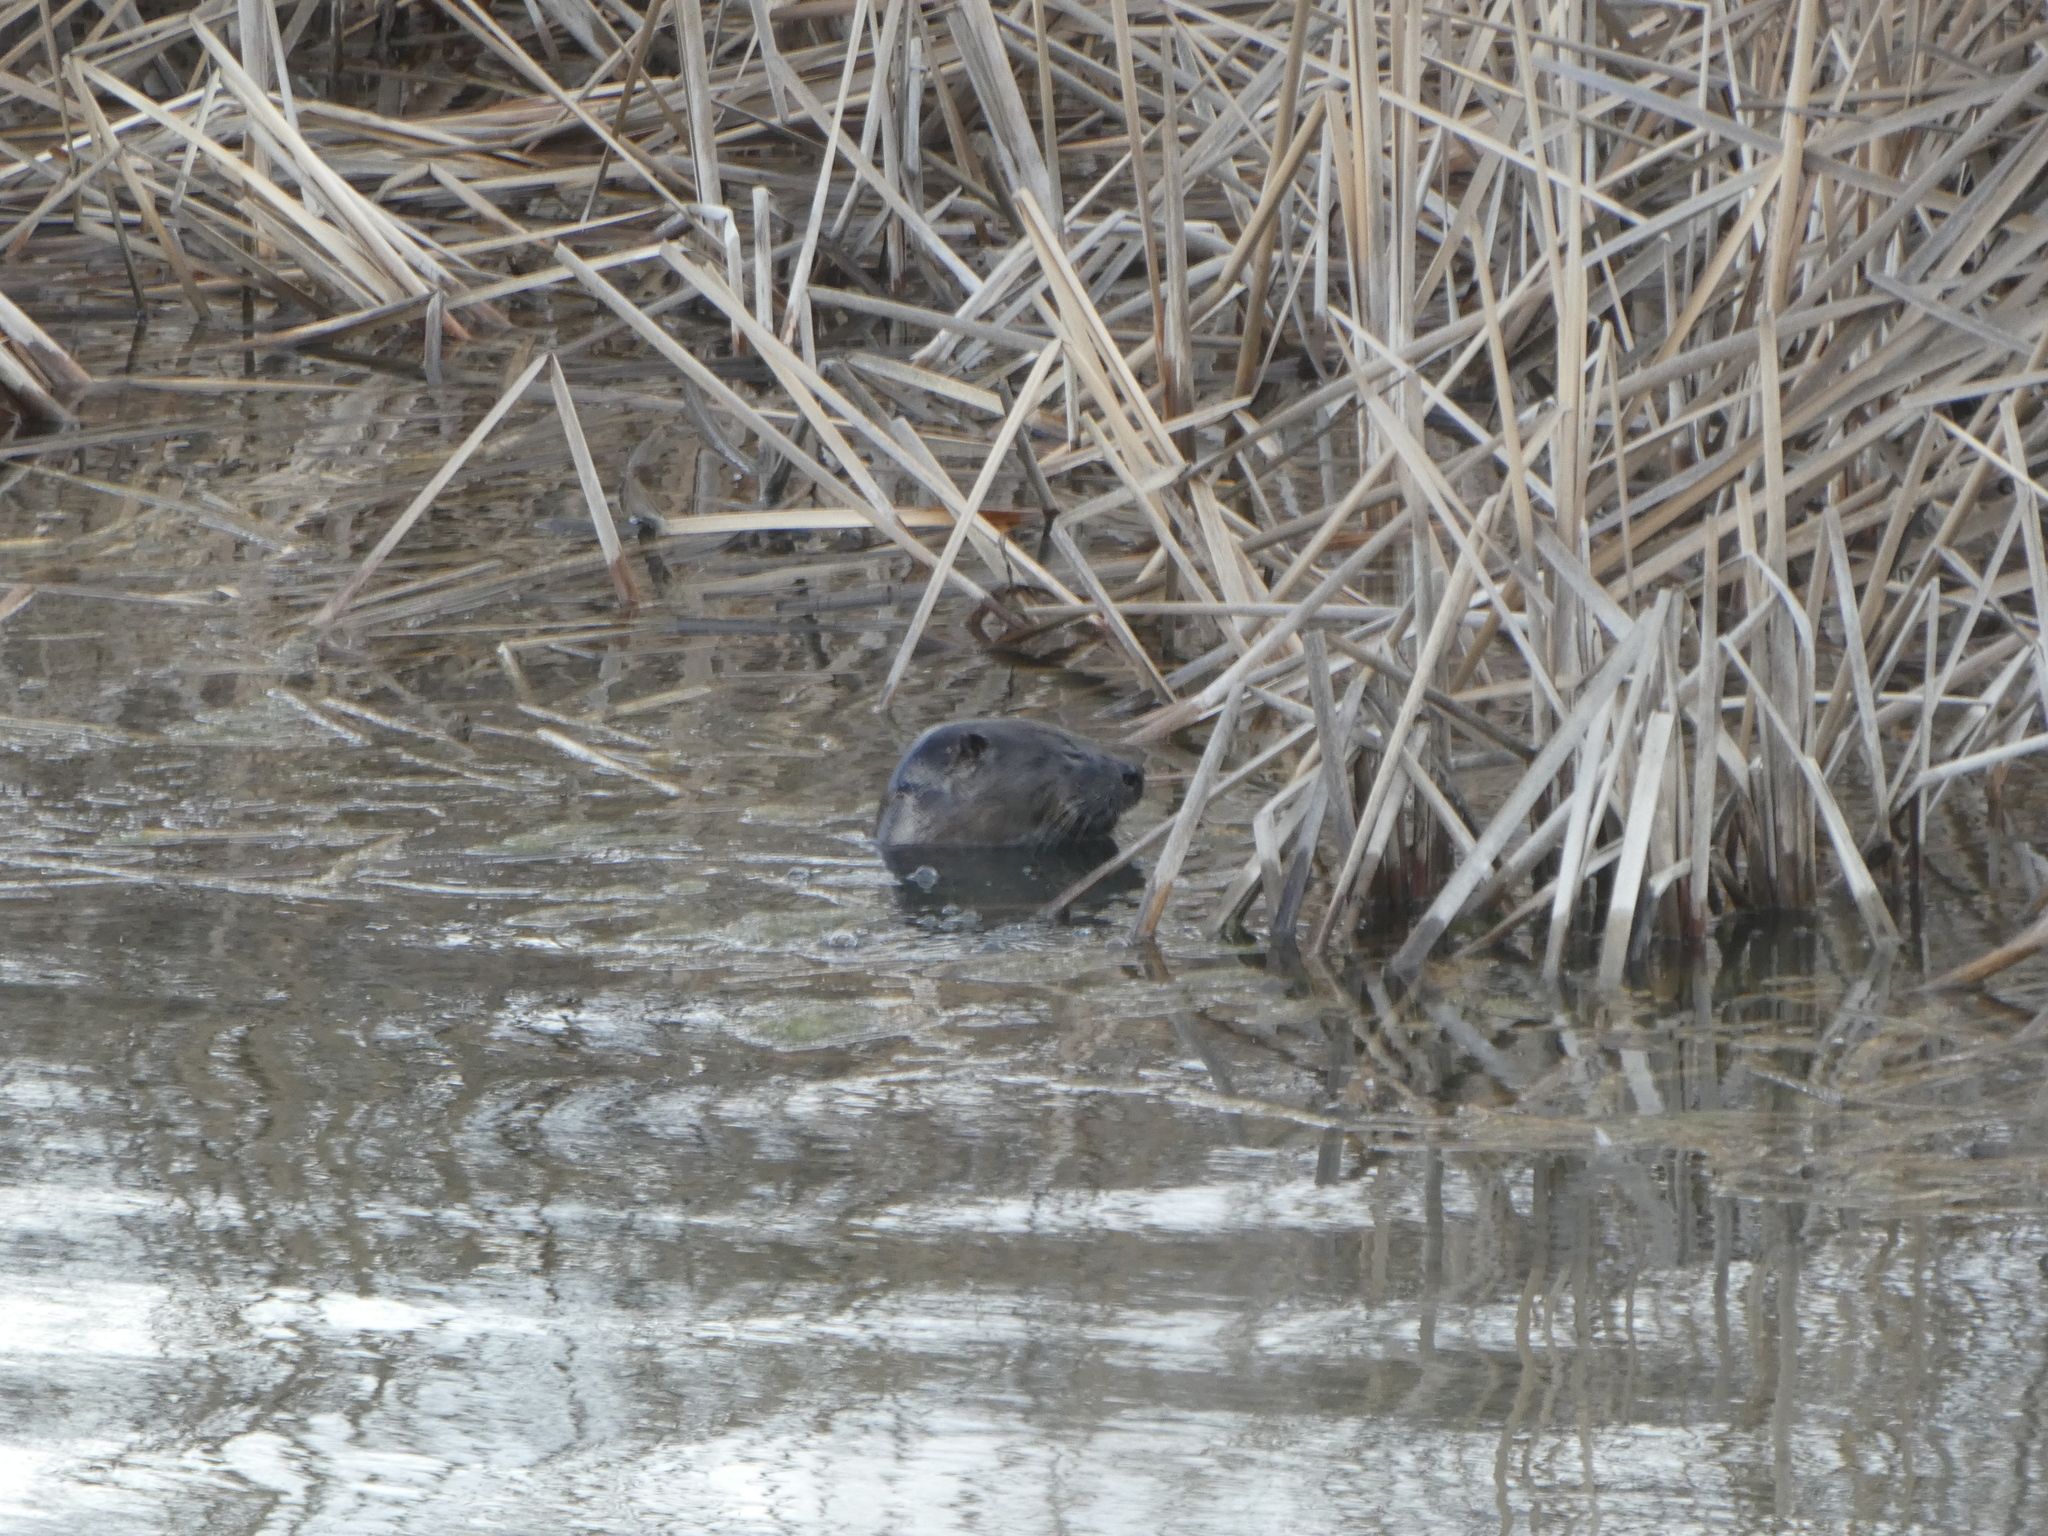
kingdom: Animalia
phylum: Chordata
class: Mammalia
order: Carnivora
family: Mustelidae
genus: Lontra
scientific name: Lontra canadensis
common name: North american river otter
